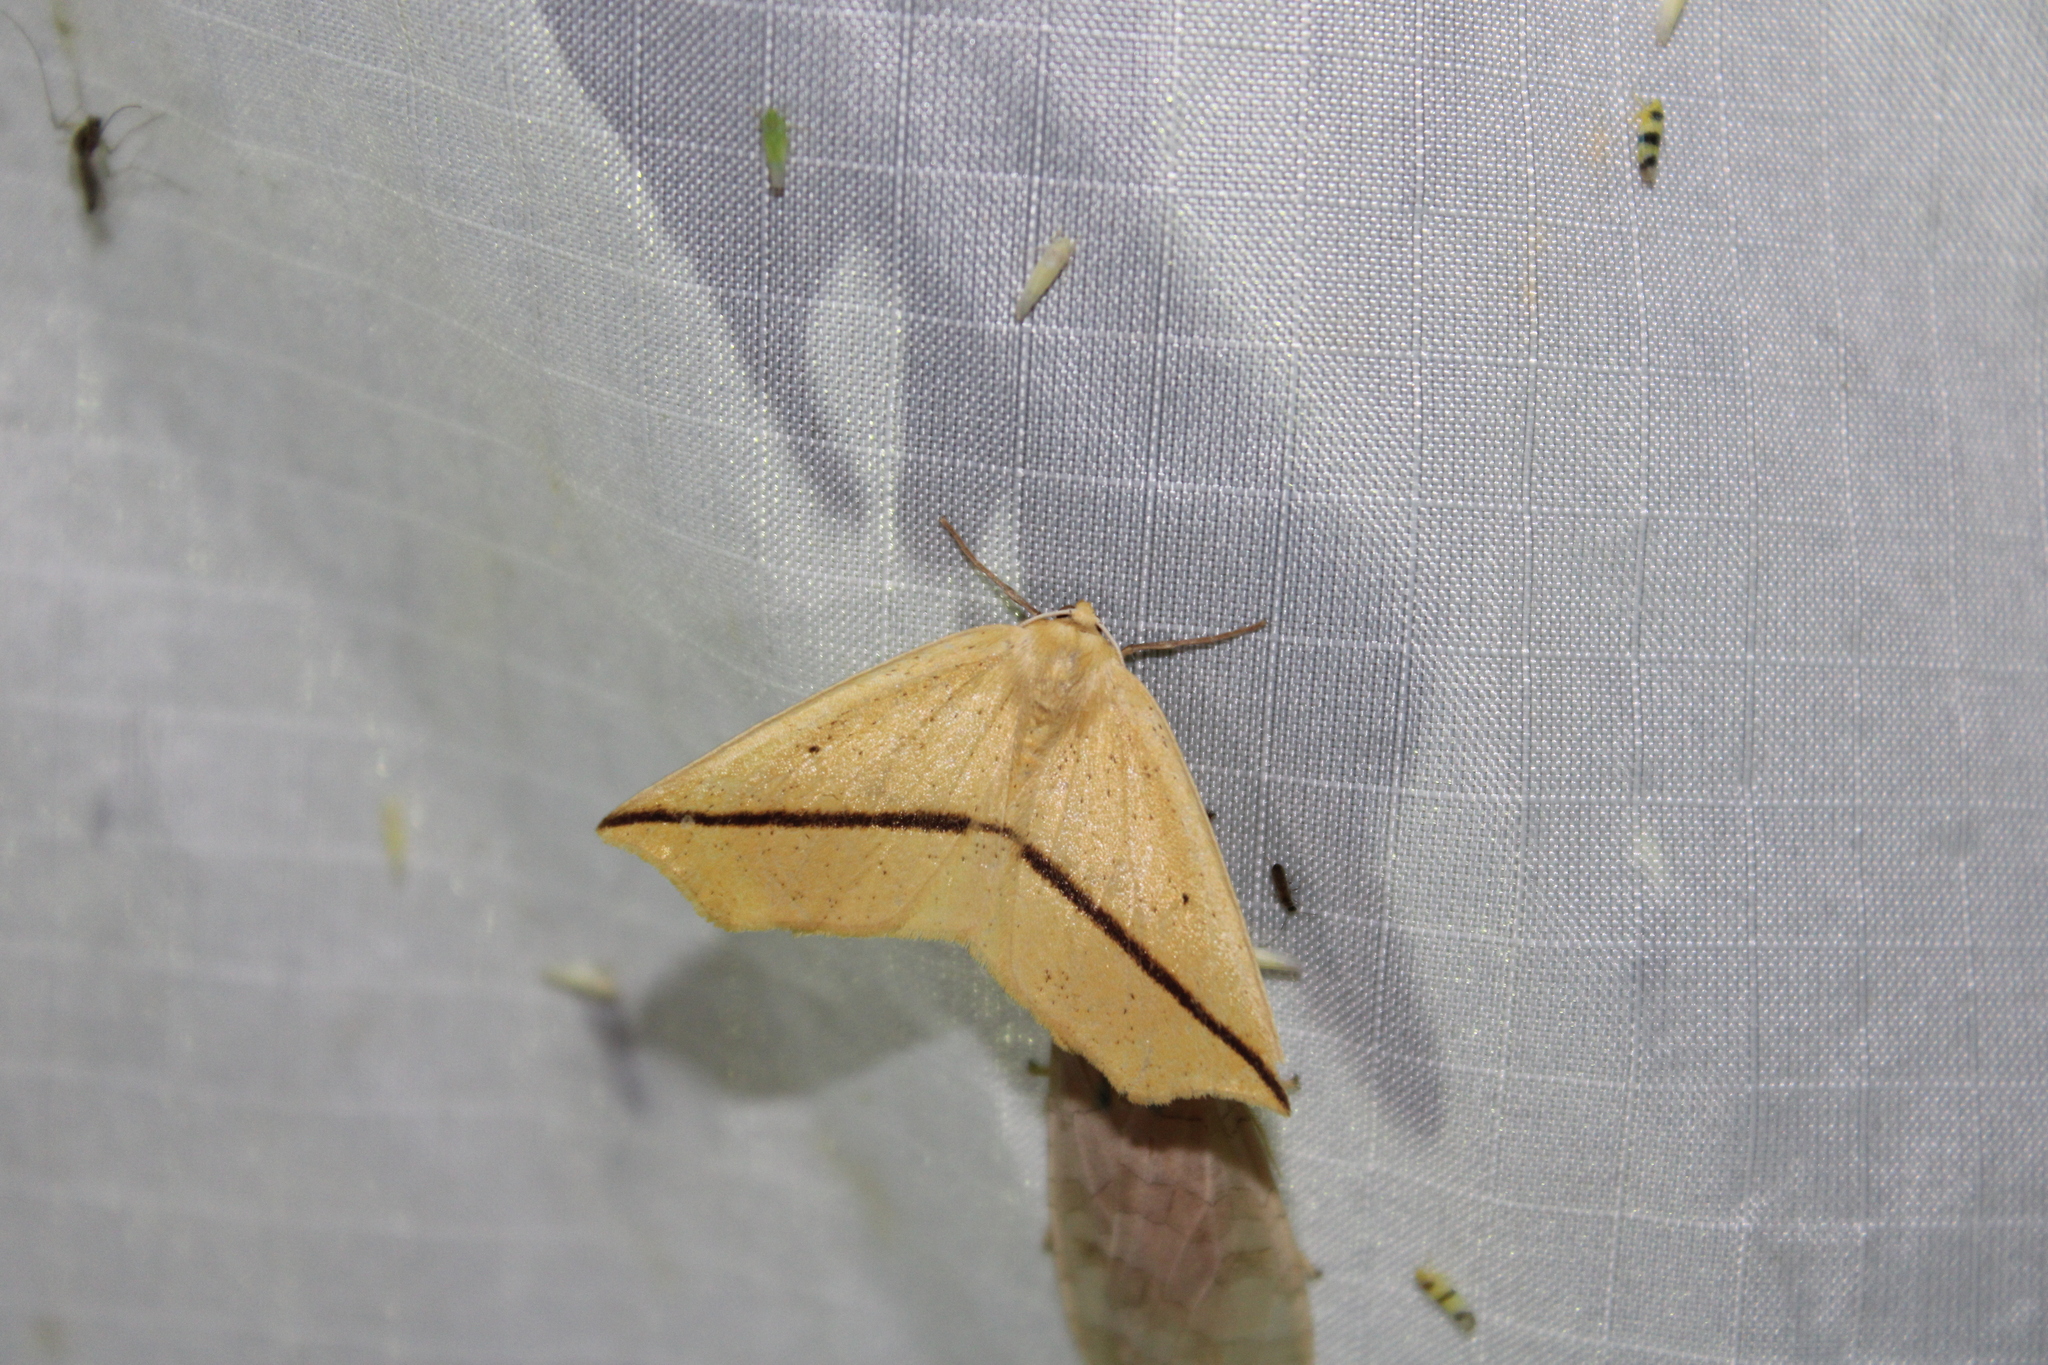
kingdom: Animalia
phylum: Arthropoda
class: Insecta
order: Lepidoptera
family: Geometridae
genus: Tetracis
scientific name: Tetracis crocallata
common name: Yellow slant-line
